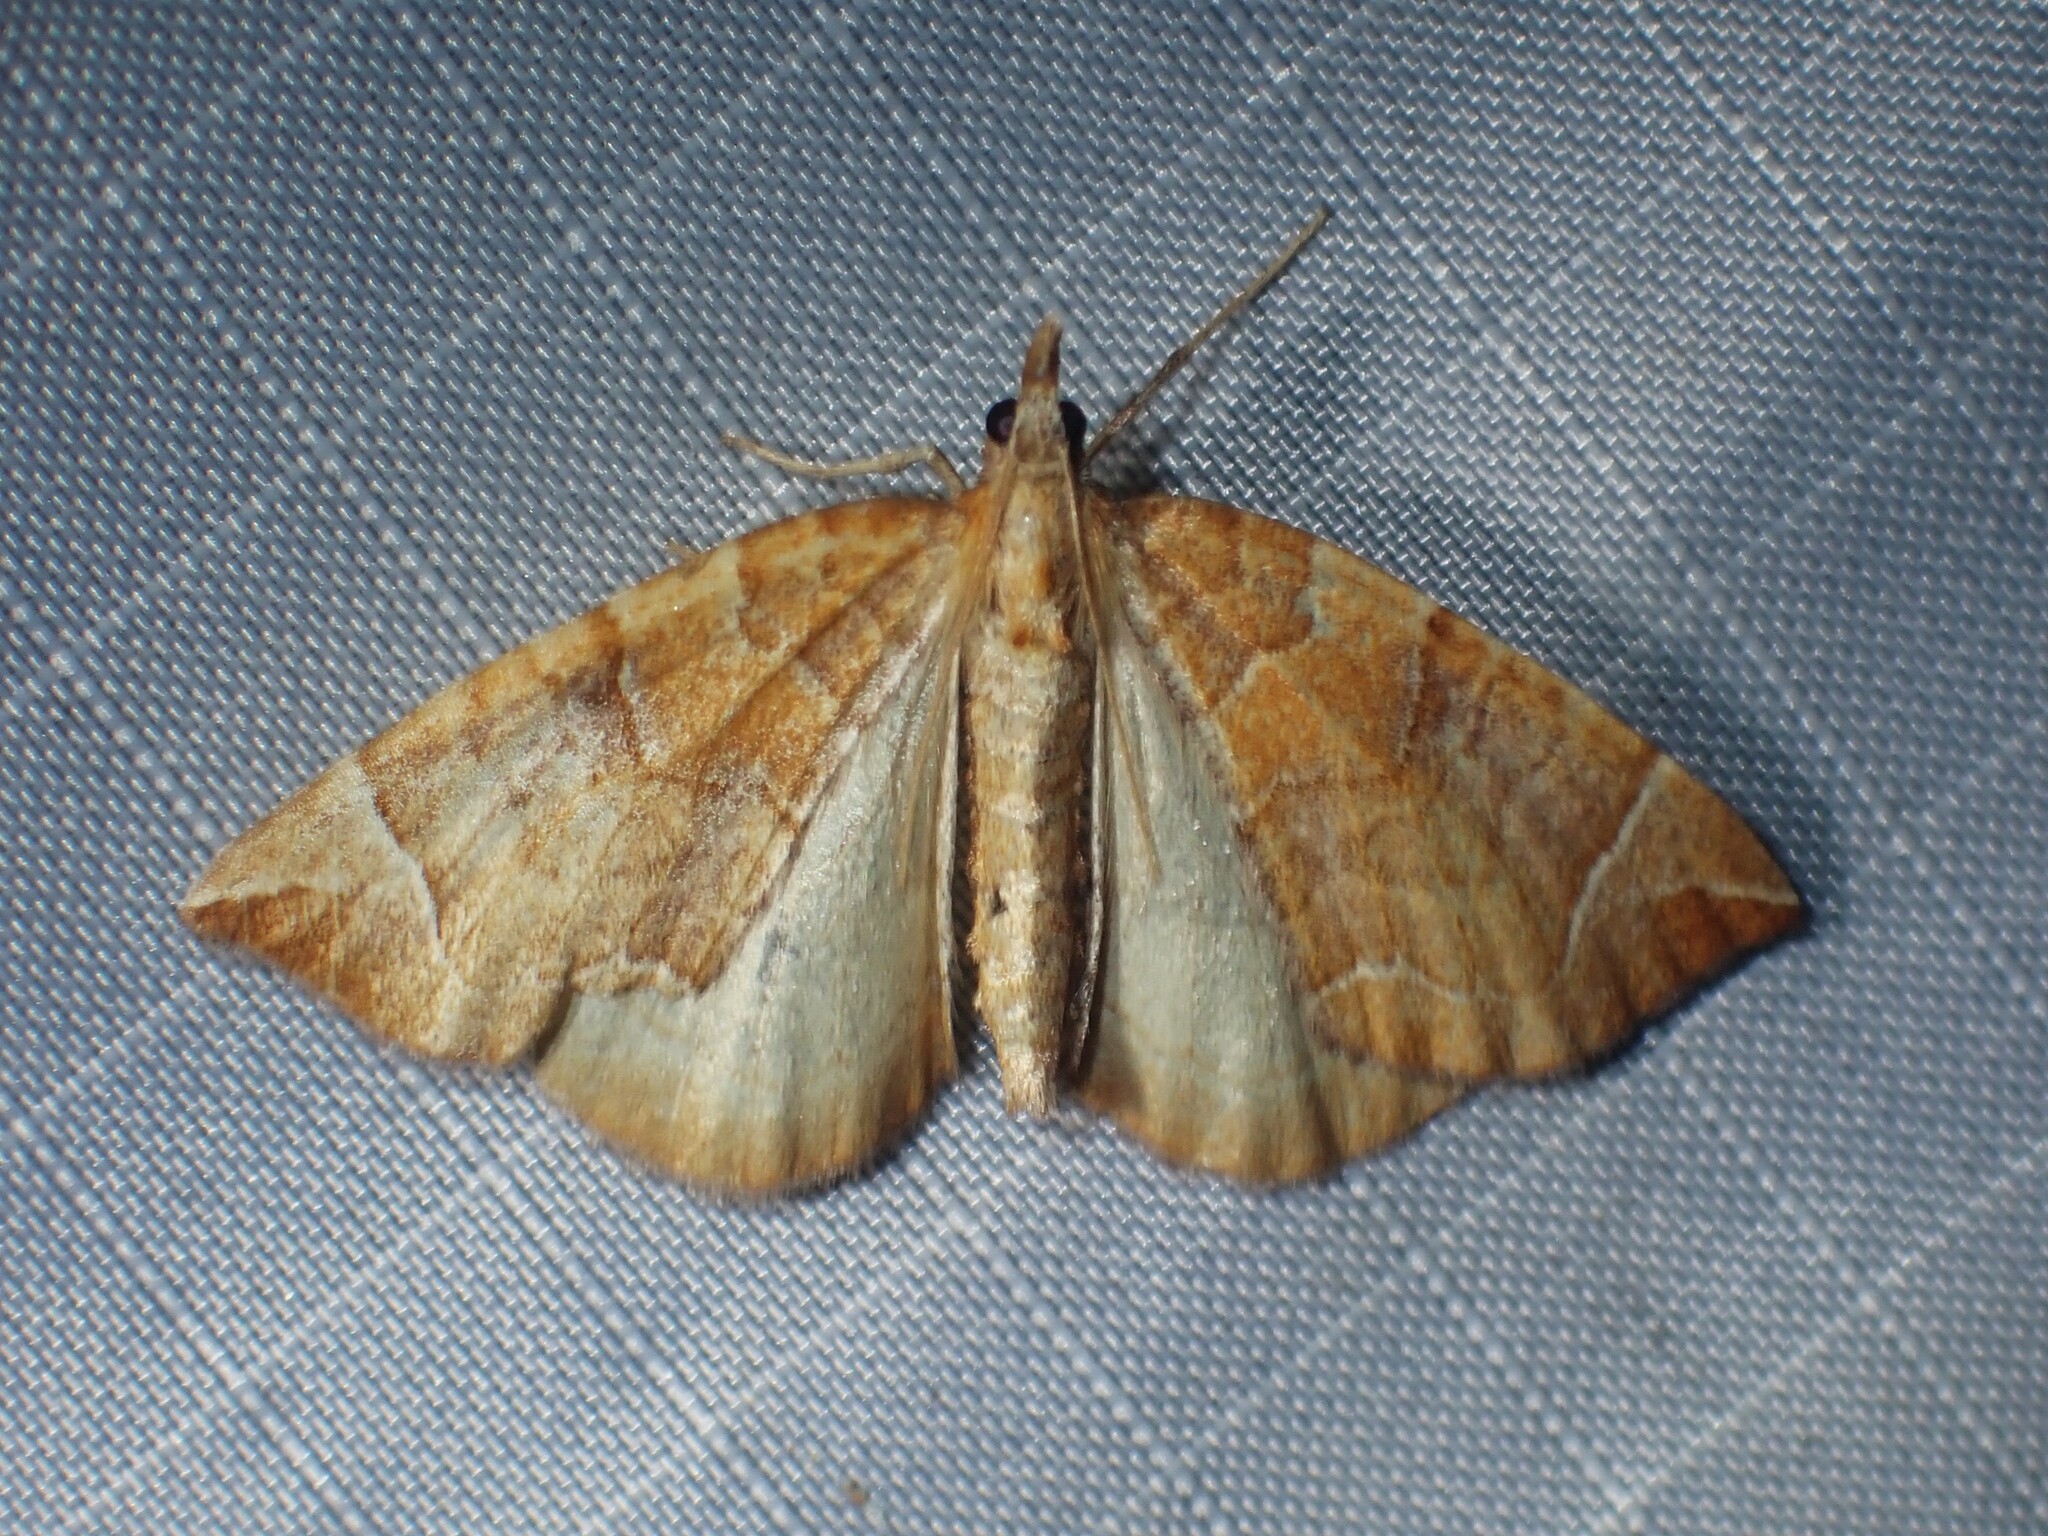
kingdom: Animalia
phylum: Arthropoda
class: Insecta
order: Lepidoptera
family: Geometridae
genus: Eulithis
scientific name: Eulithis testata
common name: Chevron
